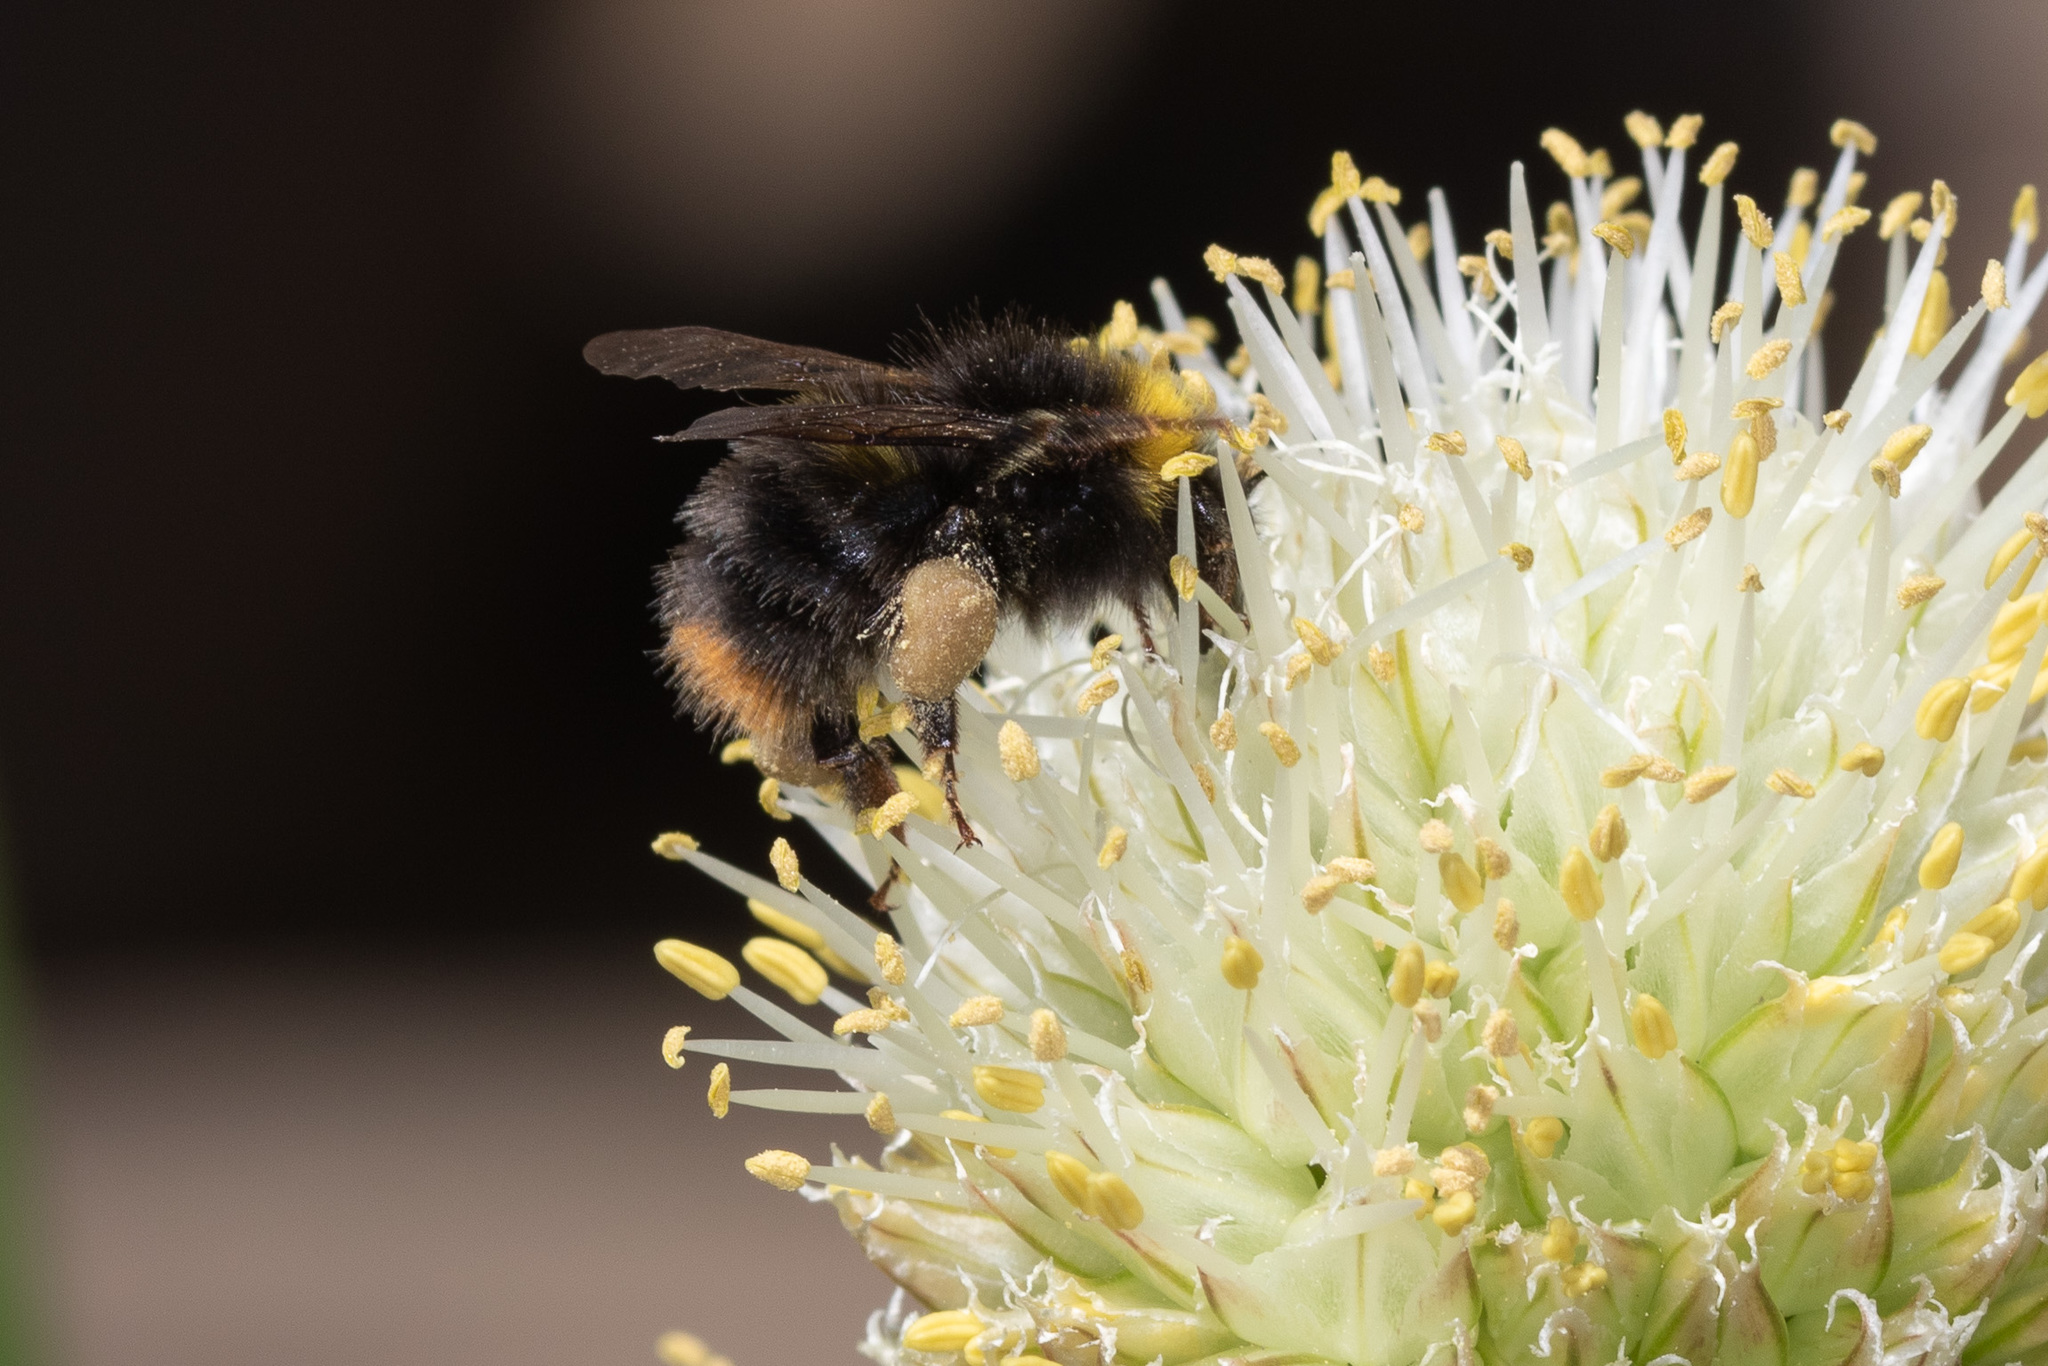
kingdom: Animalia
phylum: Arthropoda
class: Insecta
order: Hymenoptera
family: Apidae
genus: Bombus
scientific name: Bombus pratorum
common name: Early humble-bee
